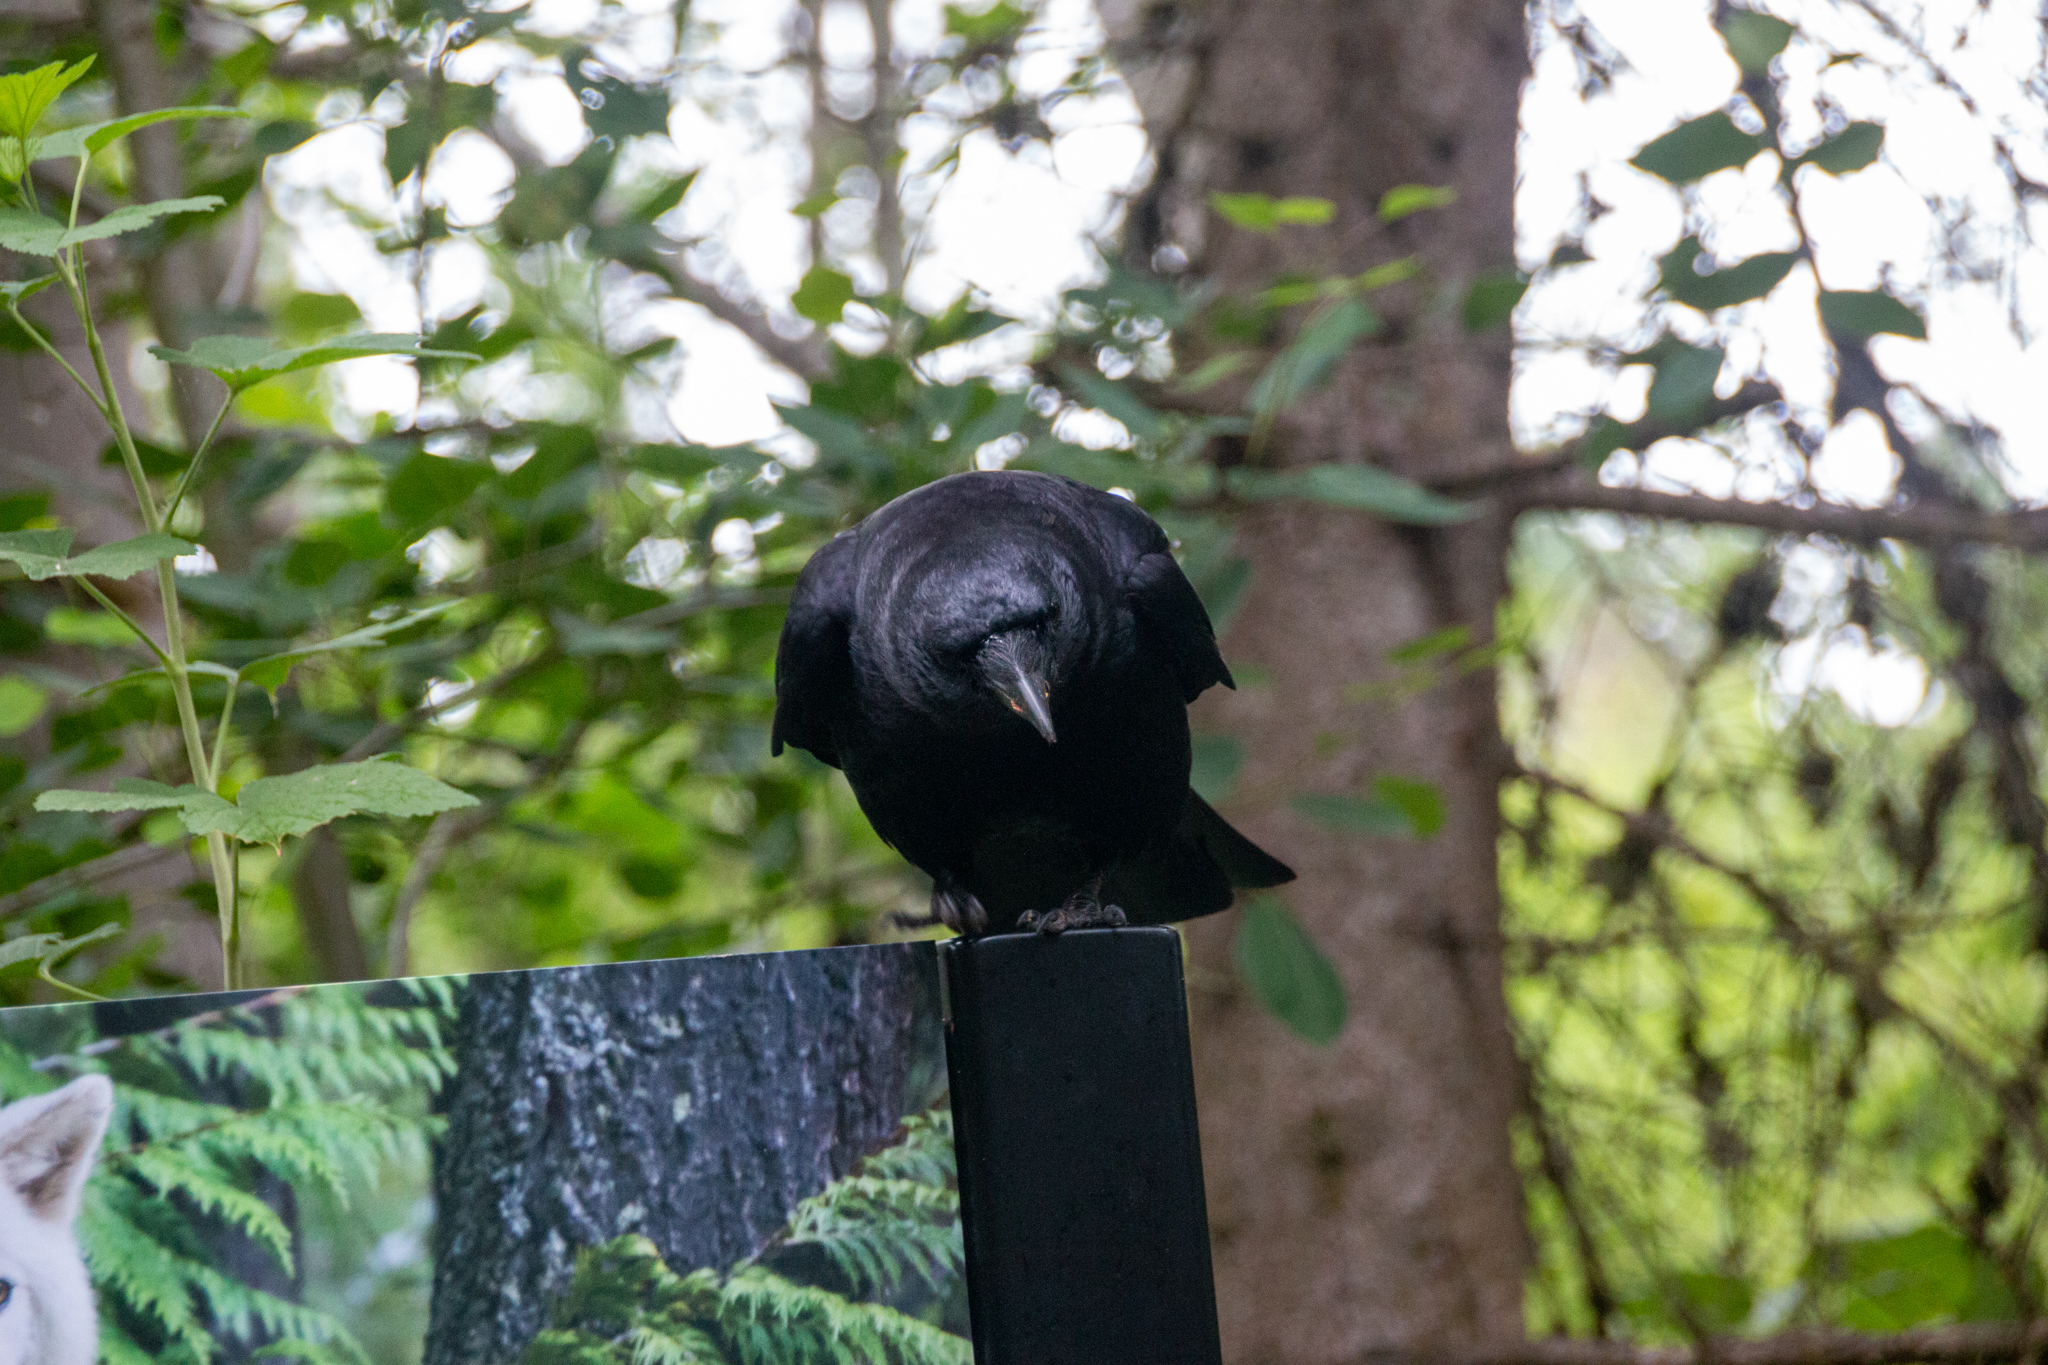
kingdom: Animalia
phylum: Chordata
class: Aves
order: Passeriformes
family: Corvidae
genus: Corvus
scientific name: Corvus brachyrhynchos
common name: American crow
